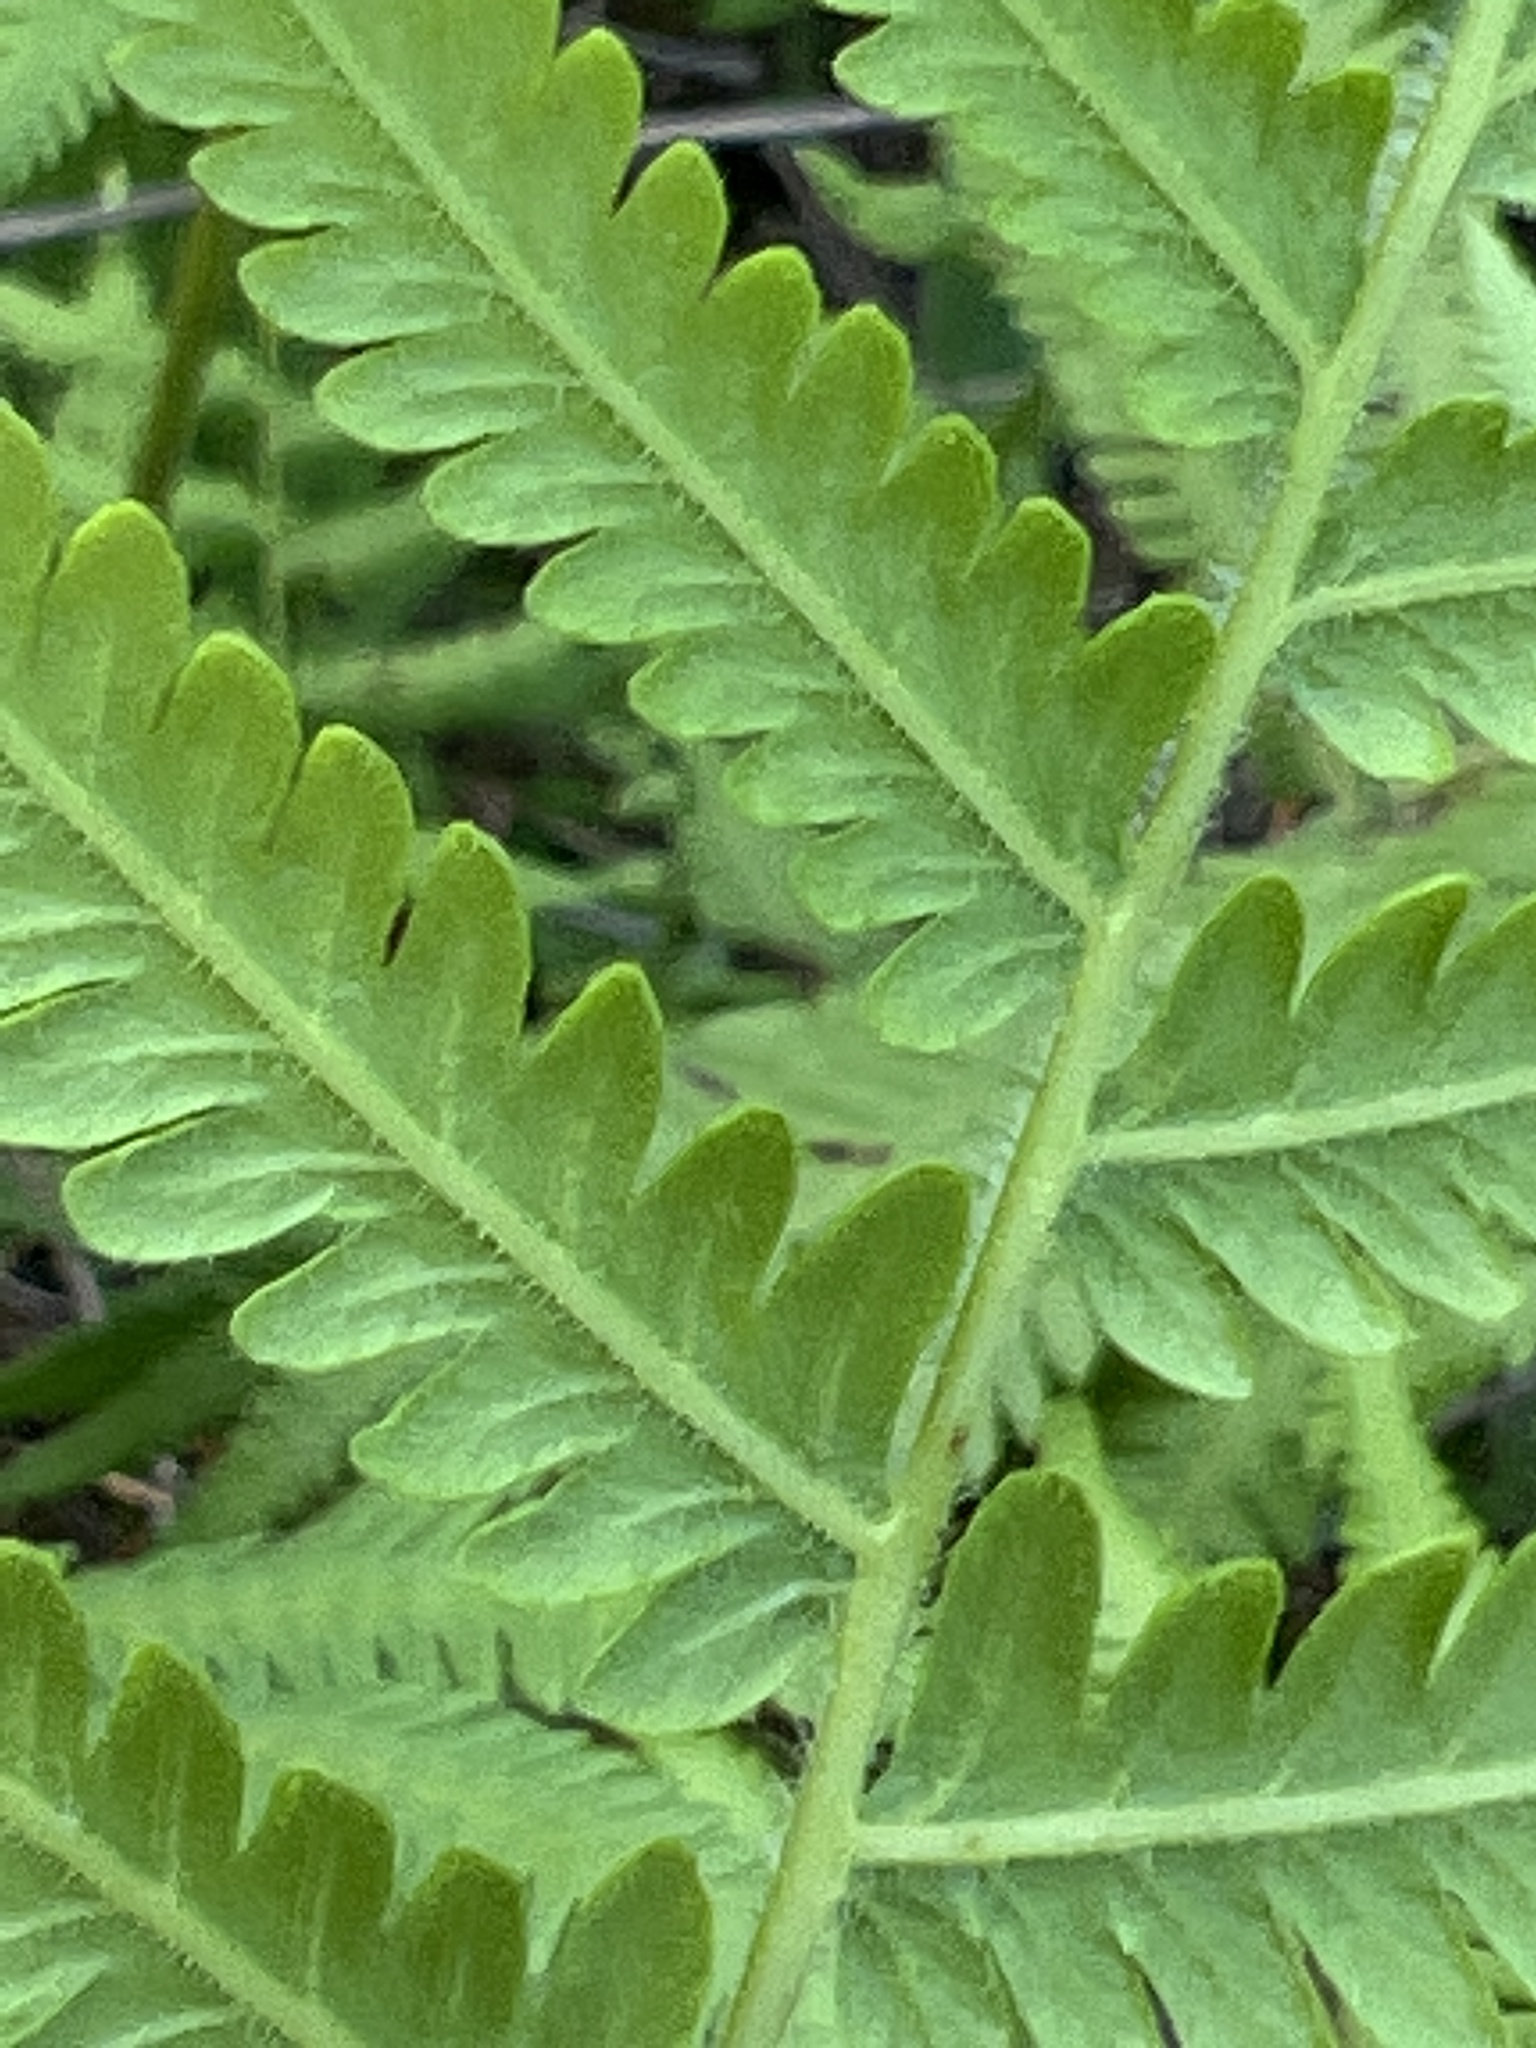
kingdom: Plantae
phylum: Tracheophyta
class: Polypodiopsida
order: Polypodiales
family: Thelypteridaceae
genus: Pelazoneuron
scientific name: Pelazoneuron kunthii
